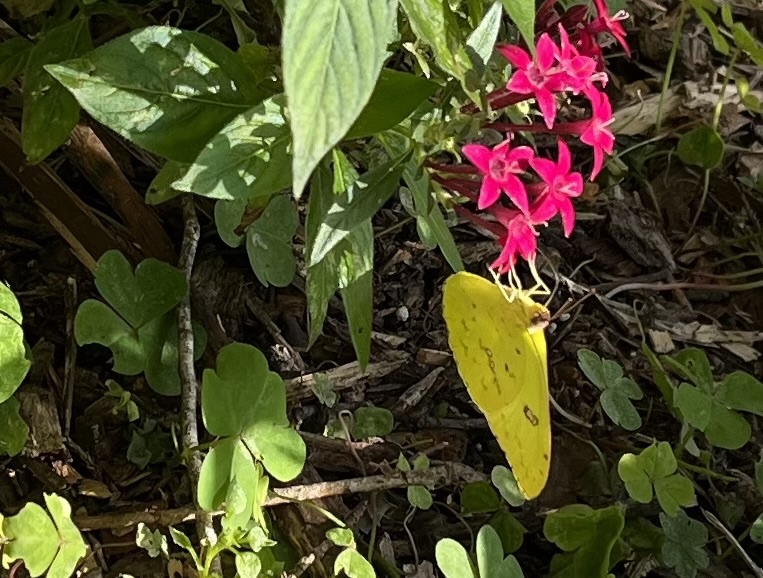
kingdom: Animalia
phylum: Arthropoda
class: Insecta
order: Lepidoptera
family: Pieridae
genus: Phoebis
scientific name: Phoebis sennae
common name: Cloudless sulphur
